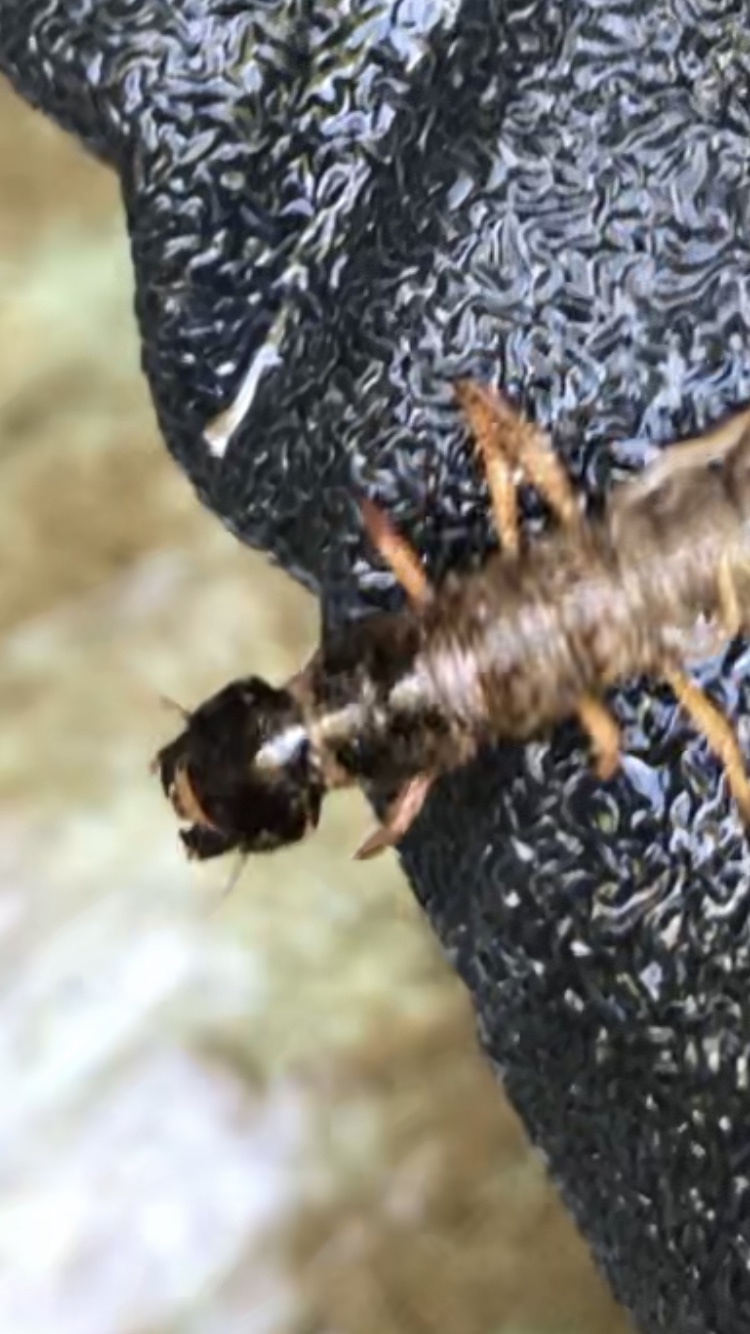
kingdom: Animalia
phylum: Arthropoda
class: Insecta
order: Megaloptera
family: Corydalidae
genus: Orohermes
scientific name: Orohermes crepusculus
